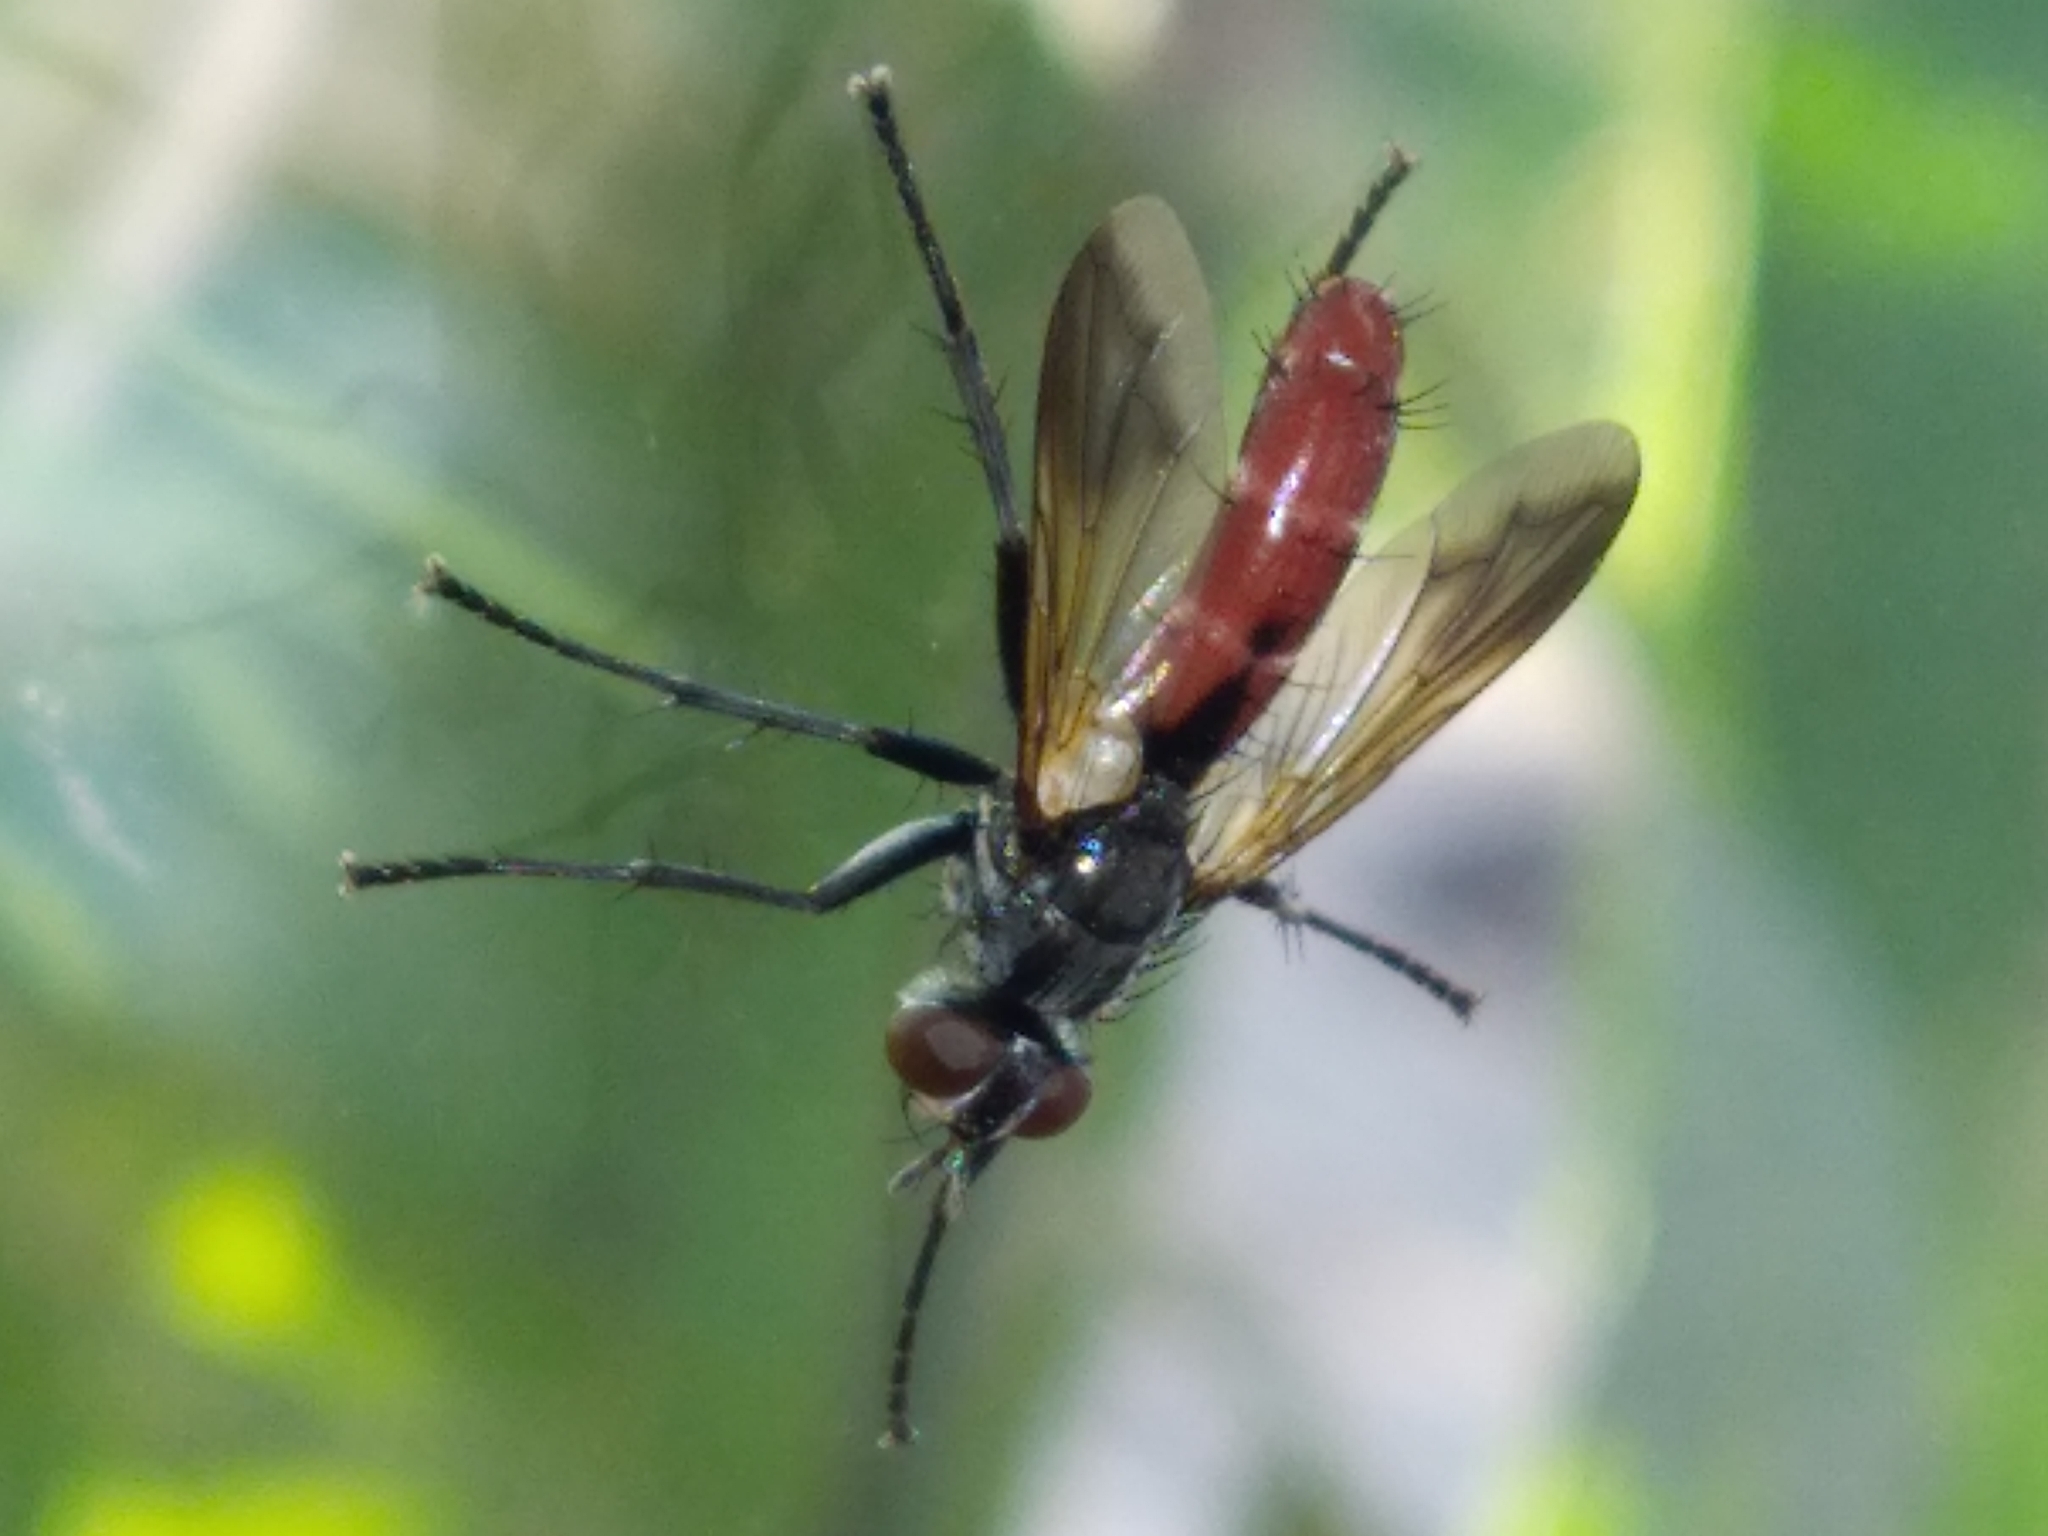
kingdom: Animalia
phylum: Arthropoda
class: Insecta
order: Diptera
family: Tachinidae
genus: Cylindromyia
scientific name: Cylindromyia bicolor
